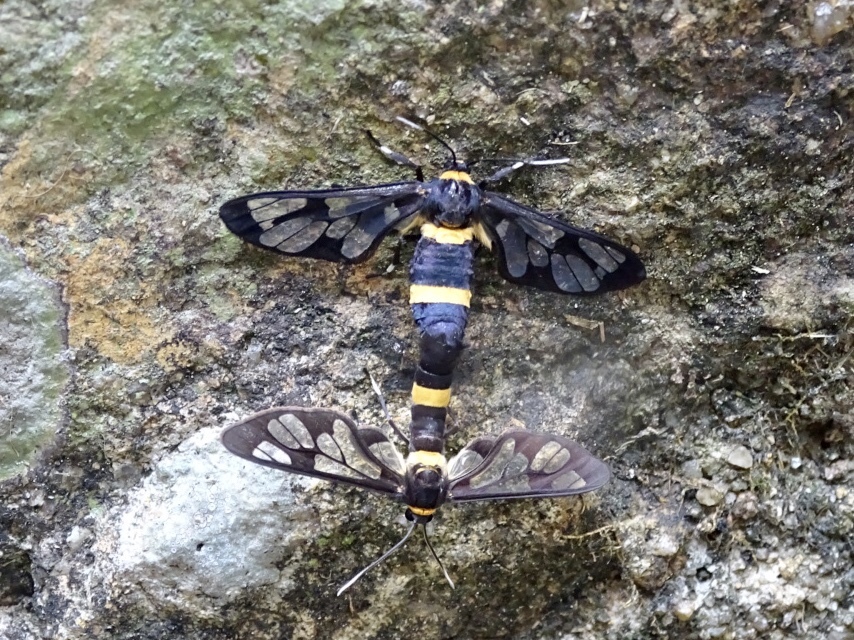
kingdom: Animalia
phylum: Arthropoda
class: Insecta
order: Lepidoptera
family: Erebidae
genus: Syntomoides
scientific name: Syntomoides imaon
